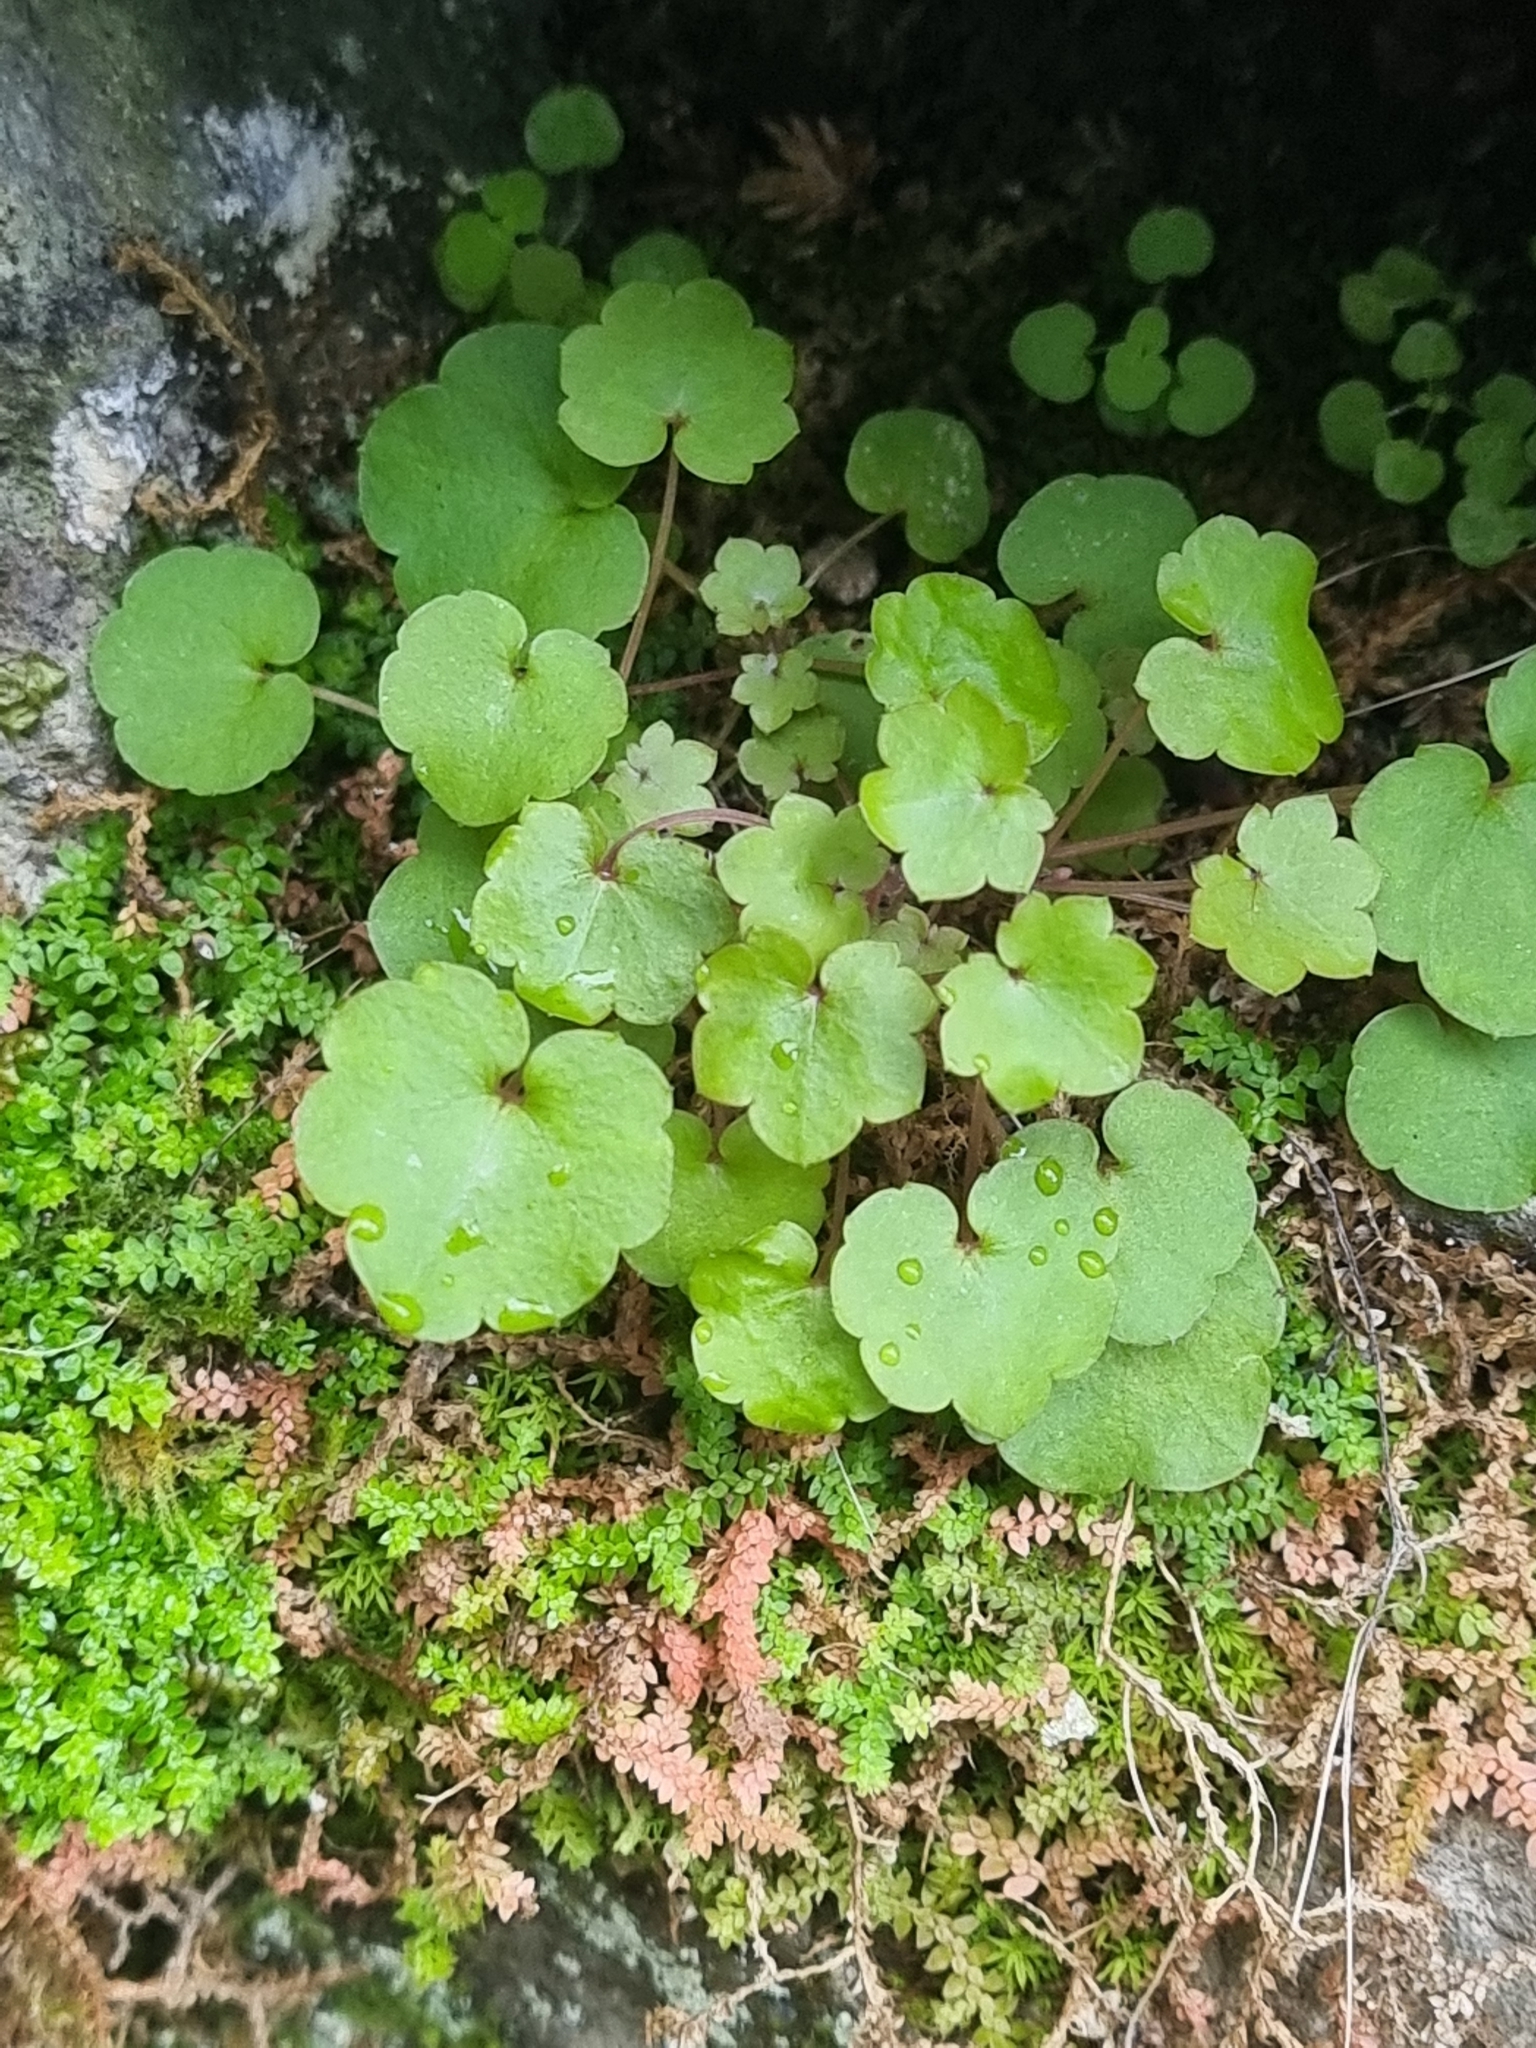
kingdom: Plantae
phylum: Tracheophyta
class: Magnoliopsida
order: Lamiales
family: Plantaginaceae
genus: Cymbalaria
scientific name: Cymbalaria muralis
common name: Ivy-leaved toadflax
